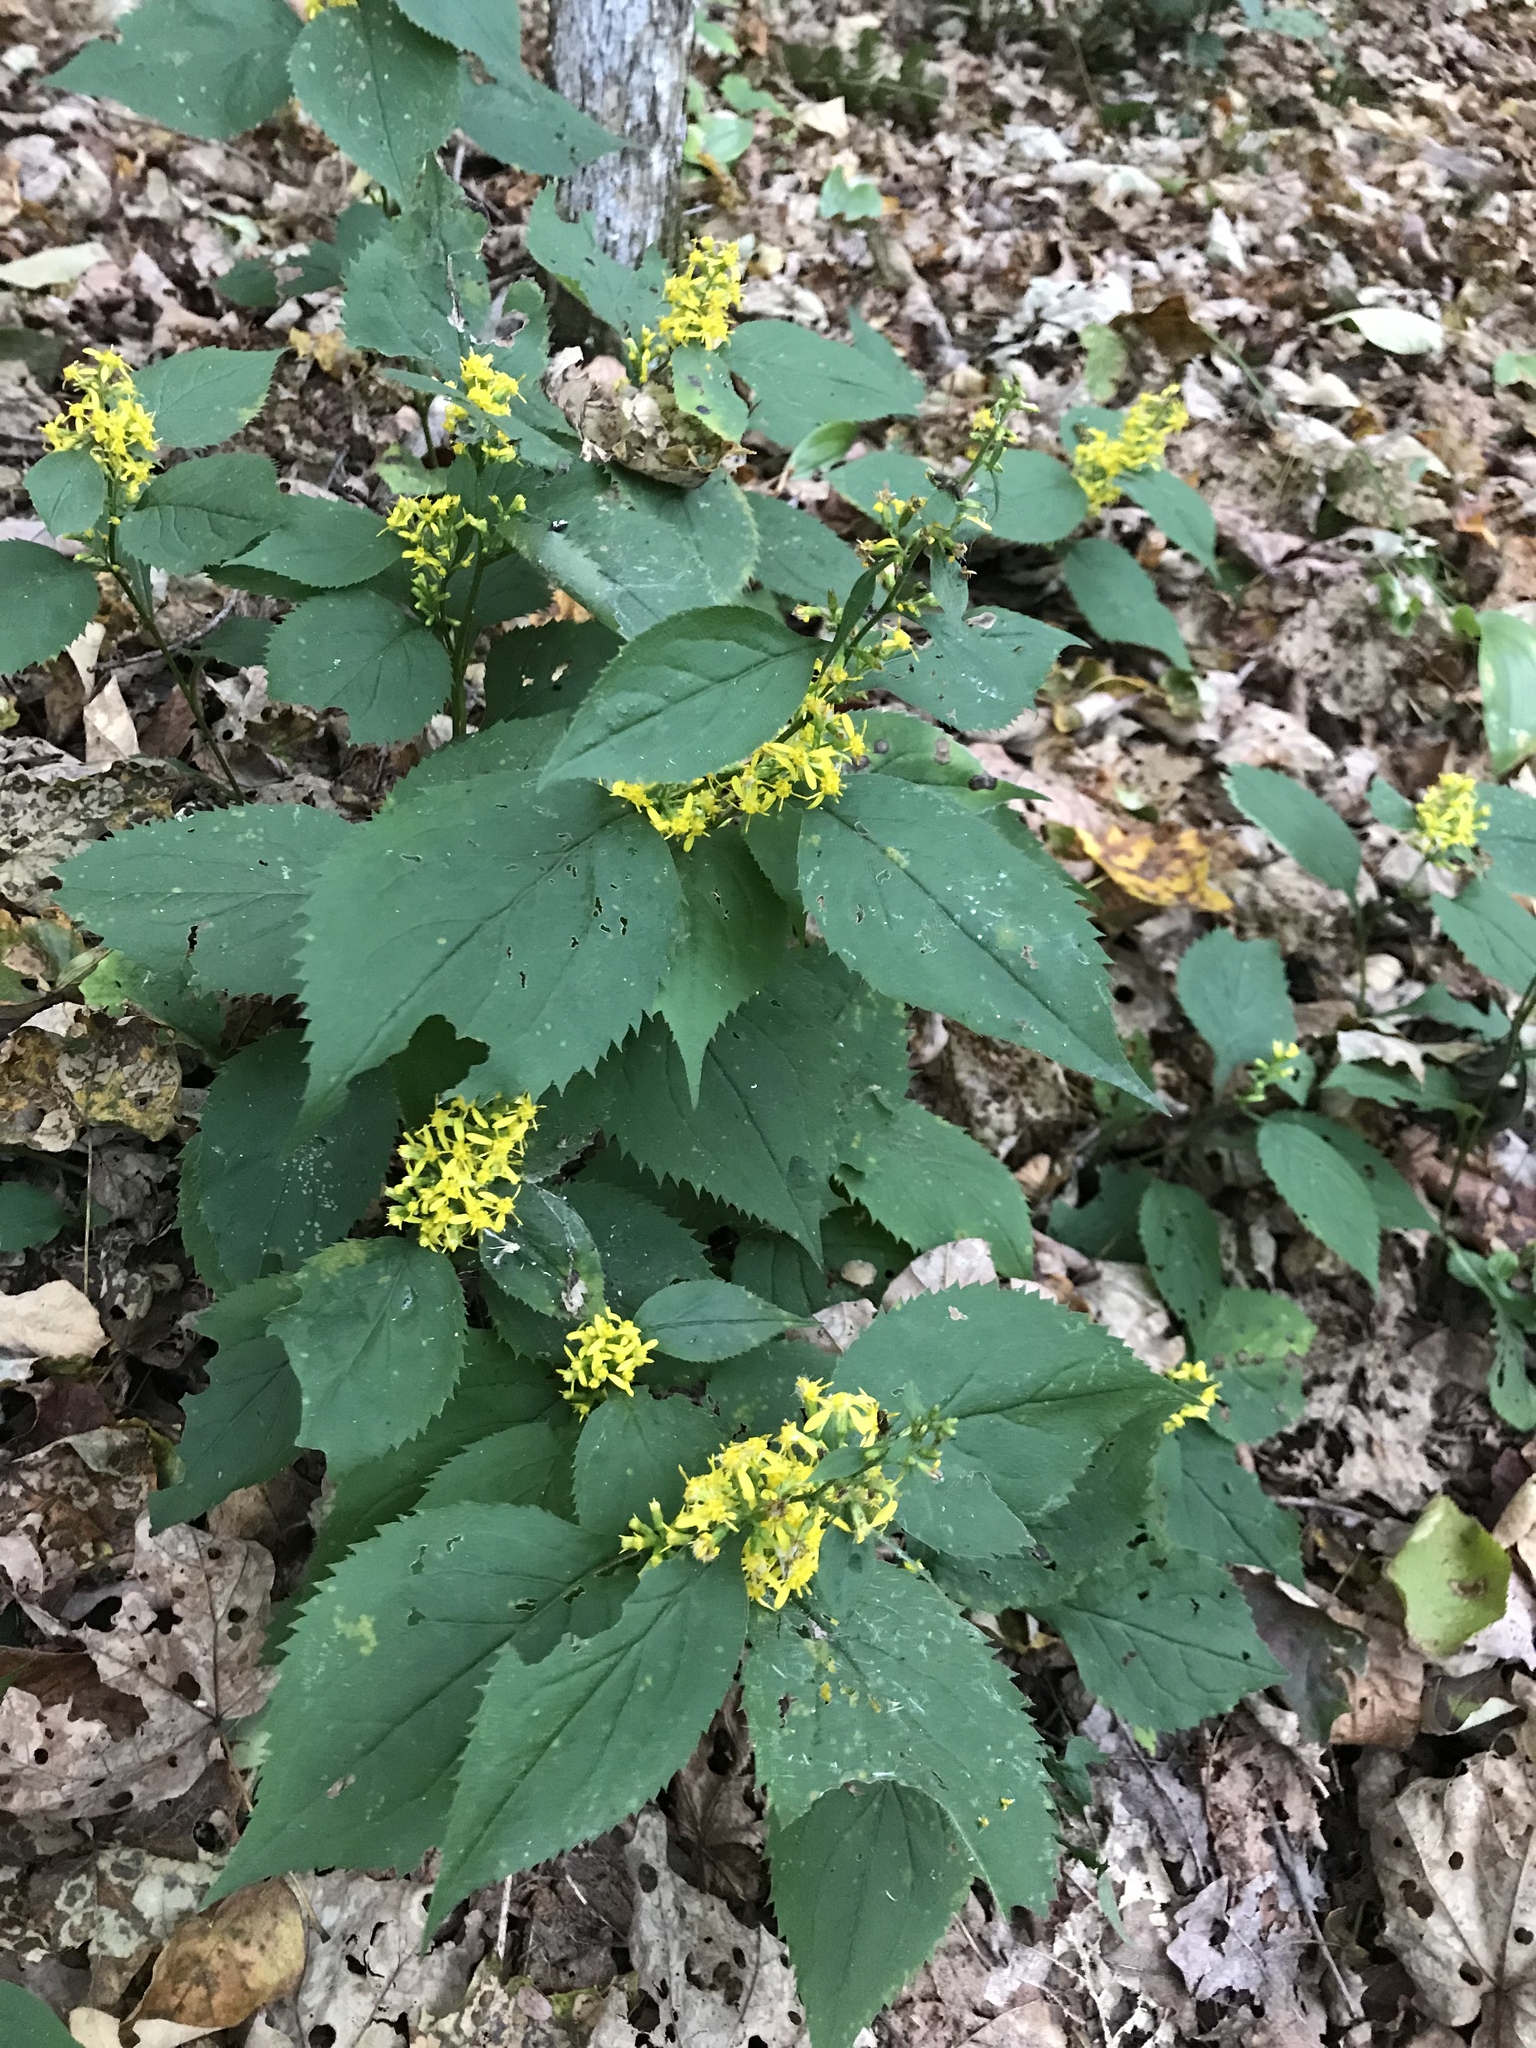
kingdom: Plantae
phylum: Tracheophyta
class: Magnoliopsida
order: Asterales
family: Asteraceae
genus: Solidago
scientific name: Solidago flexicaulis
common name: Zig-zag goldenrod
